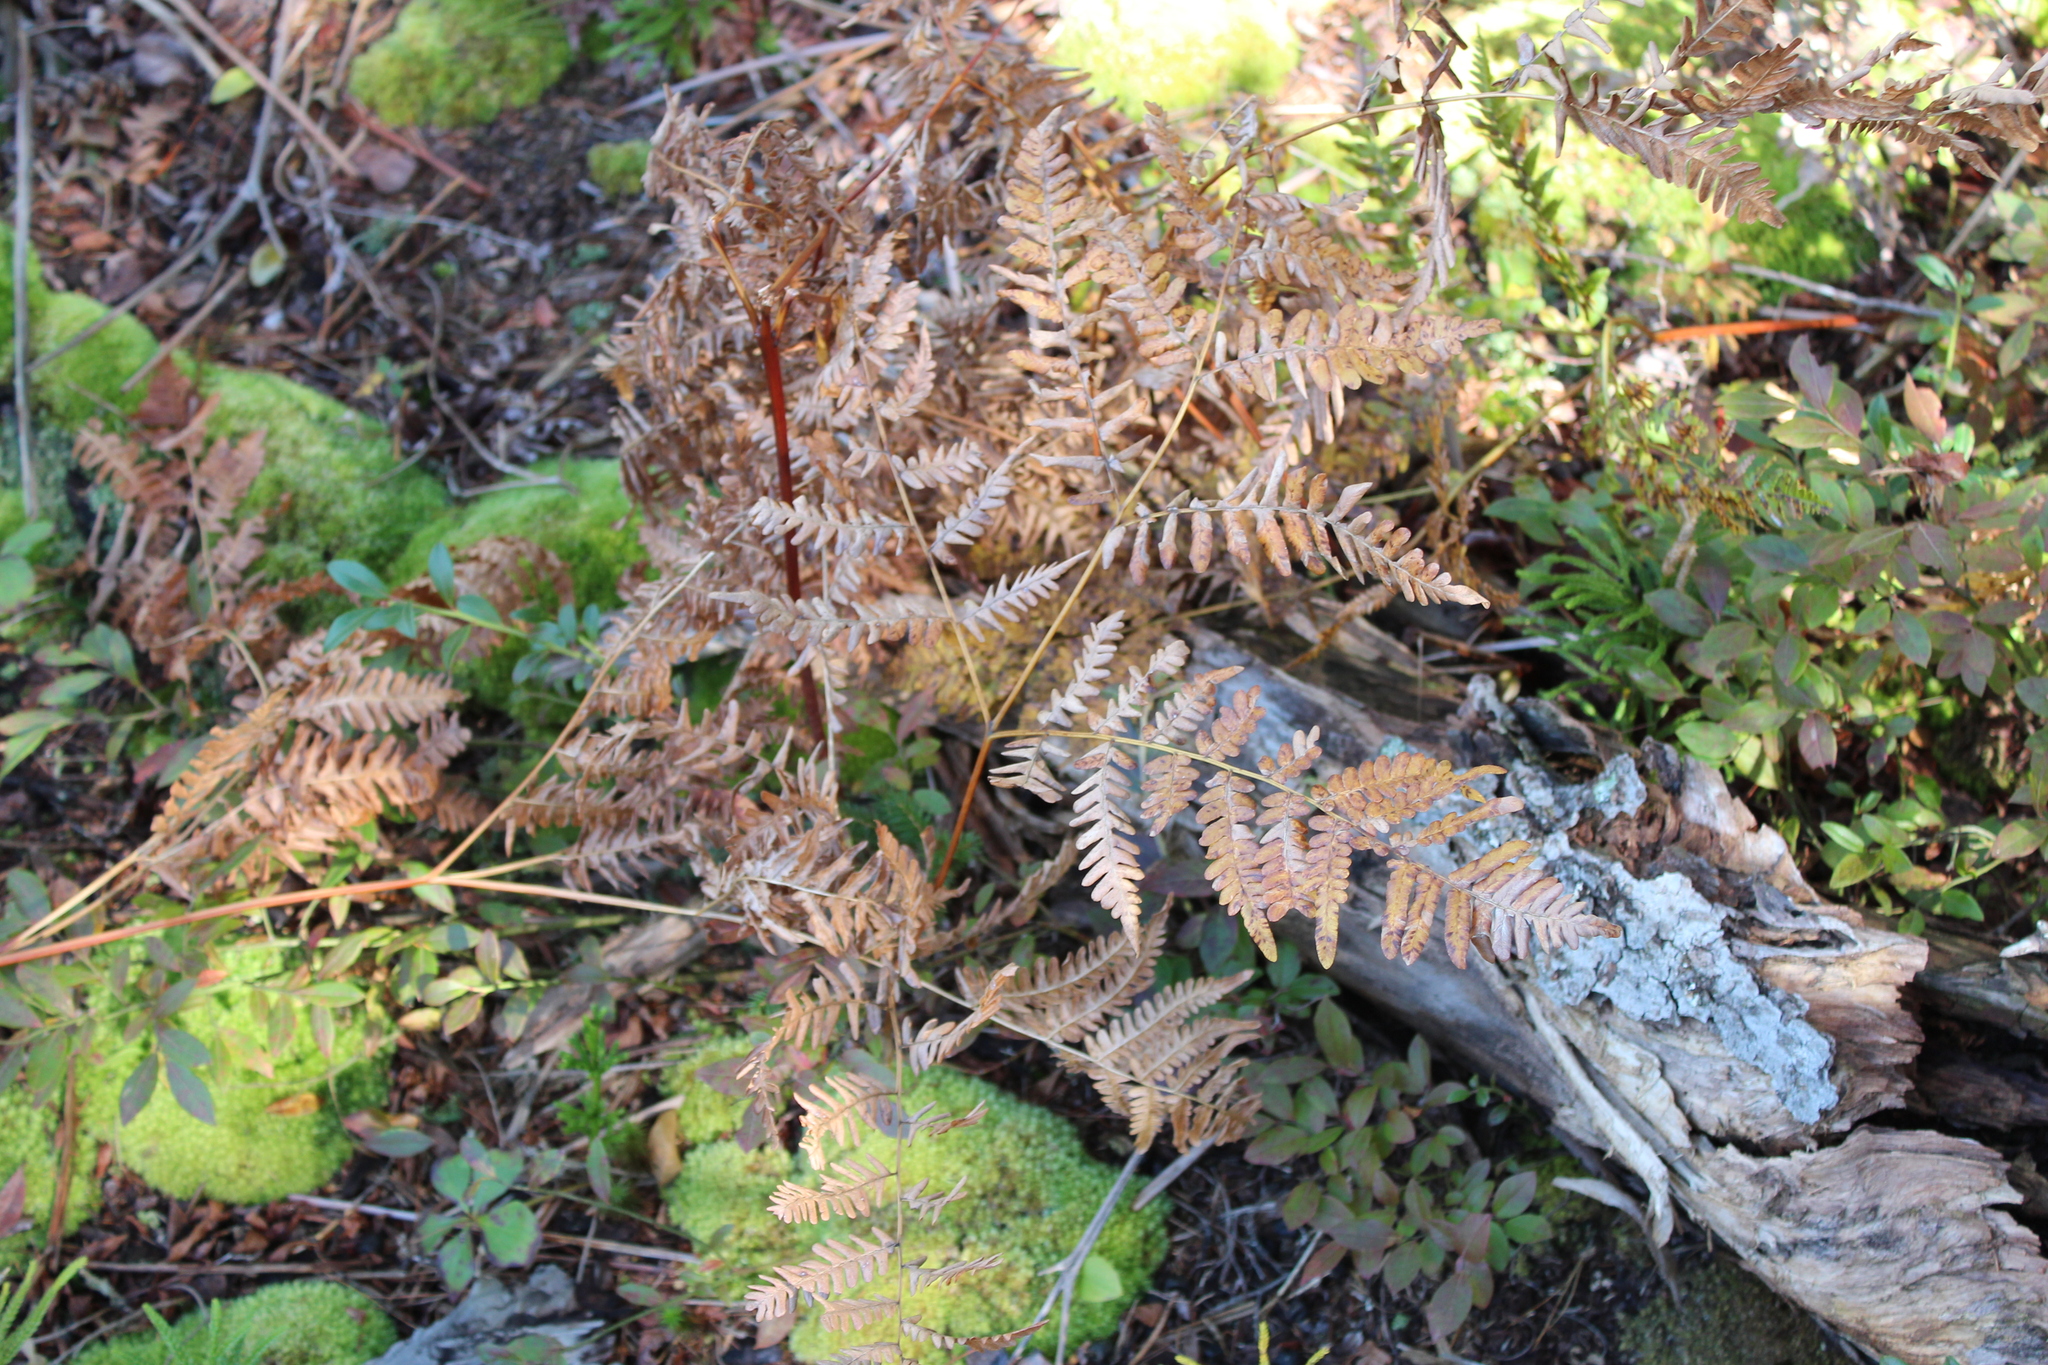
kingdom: Plantae
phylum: Tracheophyta
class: Polypodiopsida
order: Polypodiales
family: Dennstaedtiaceae
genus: Pteridium
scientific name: Pteridium aquilinum
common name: Bracken
